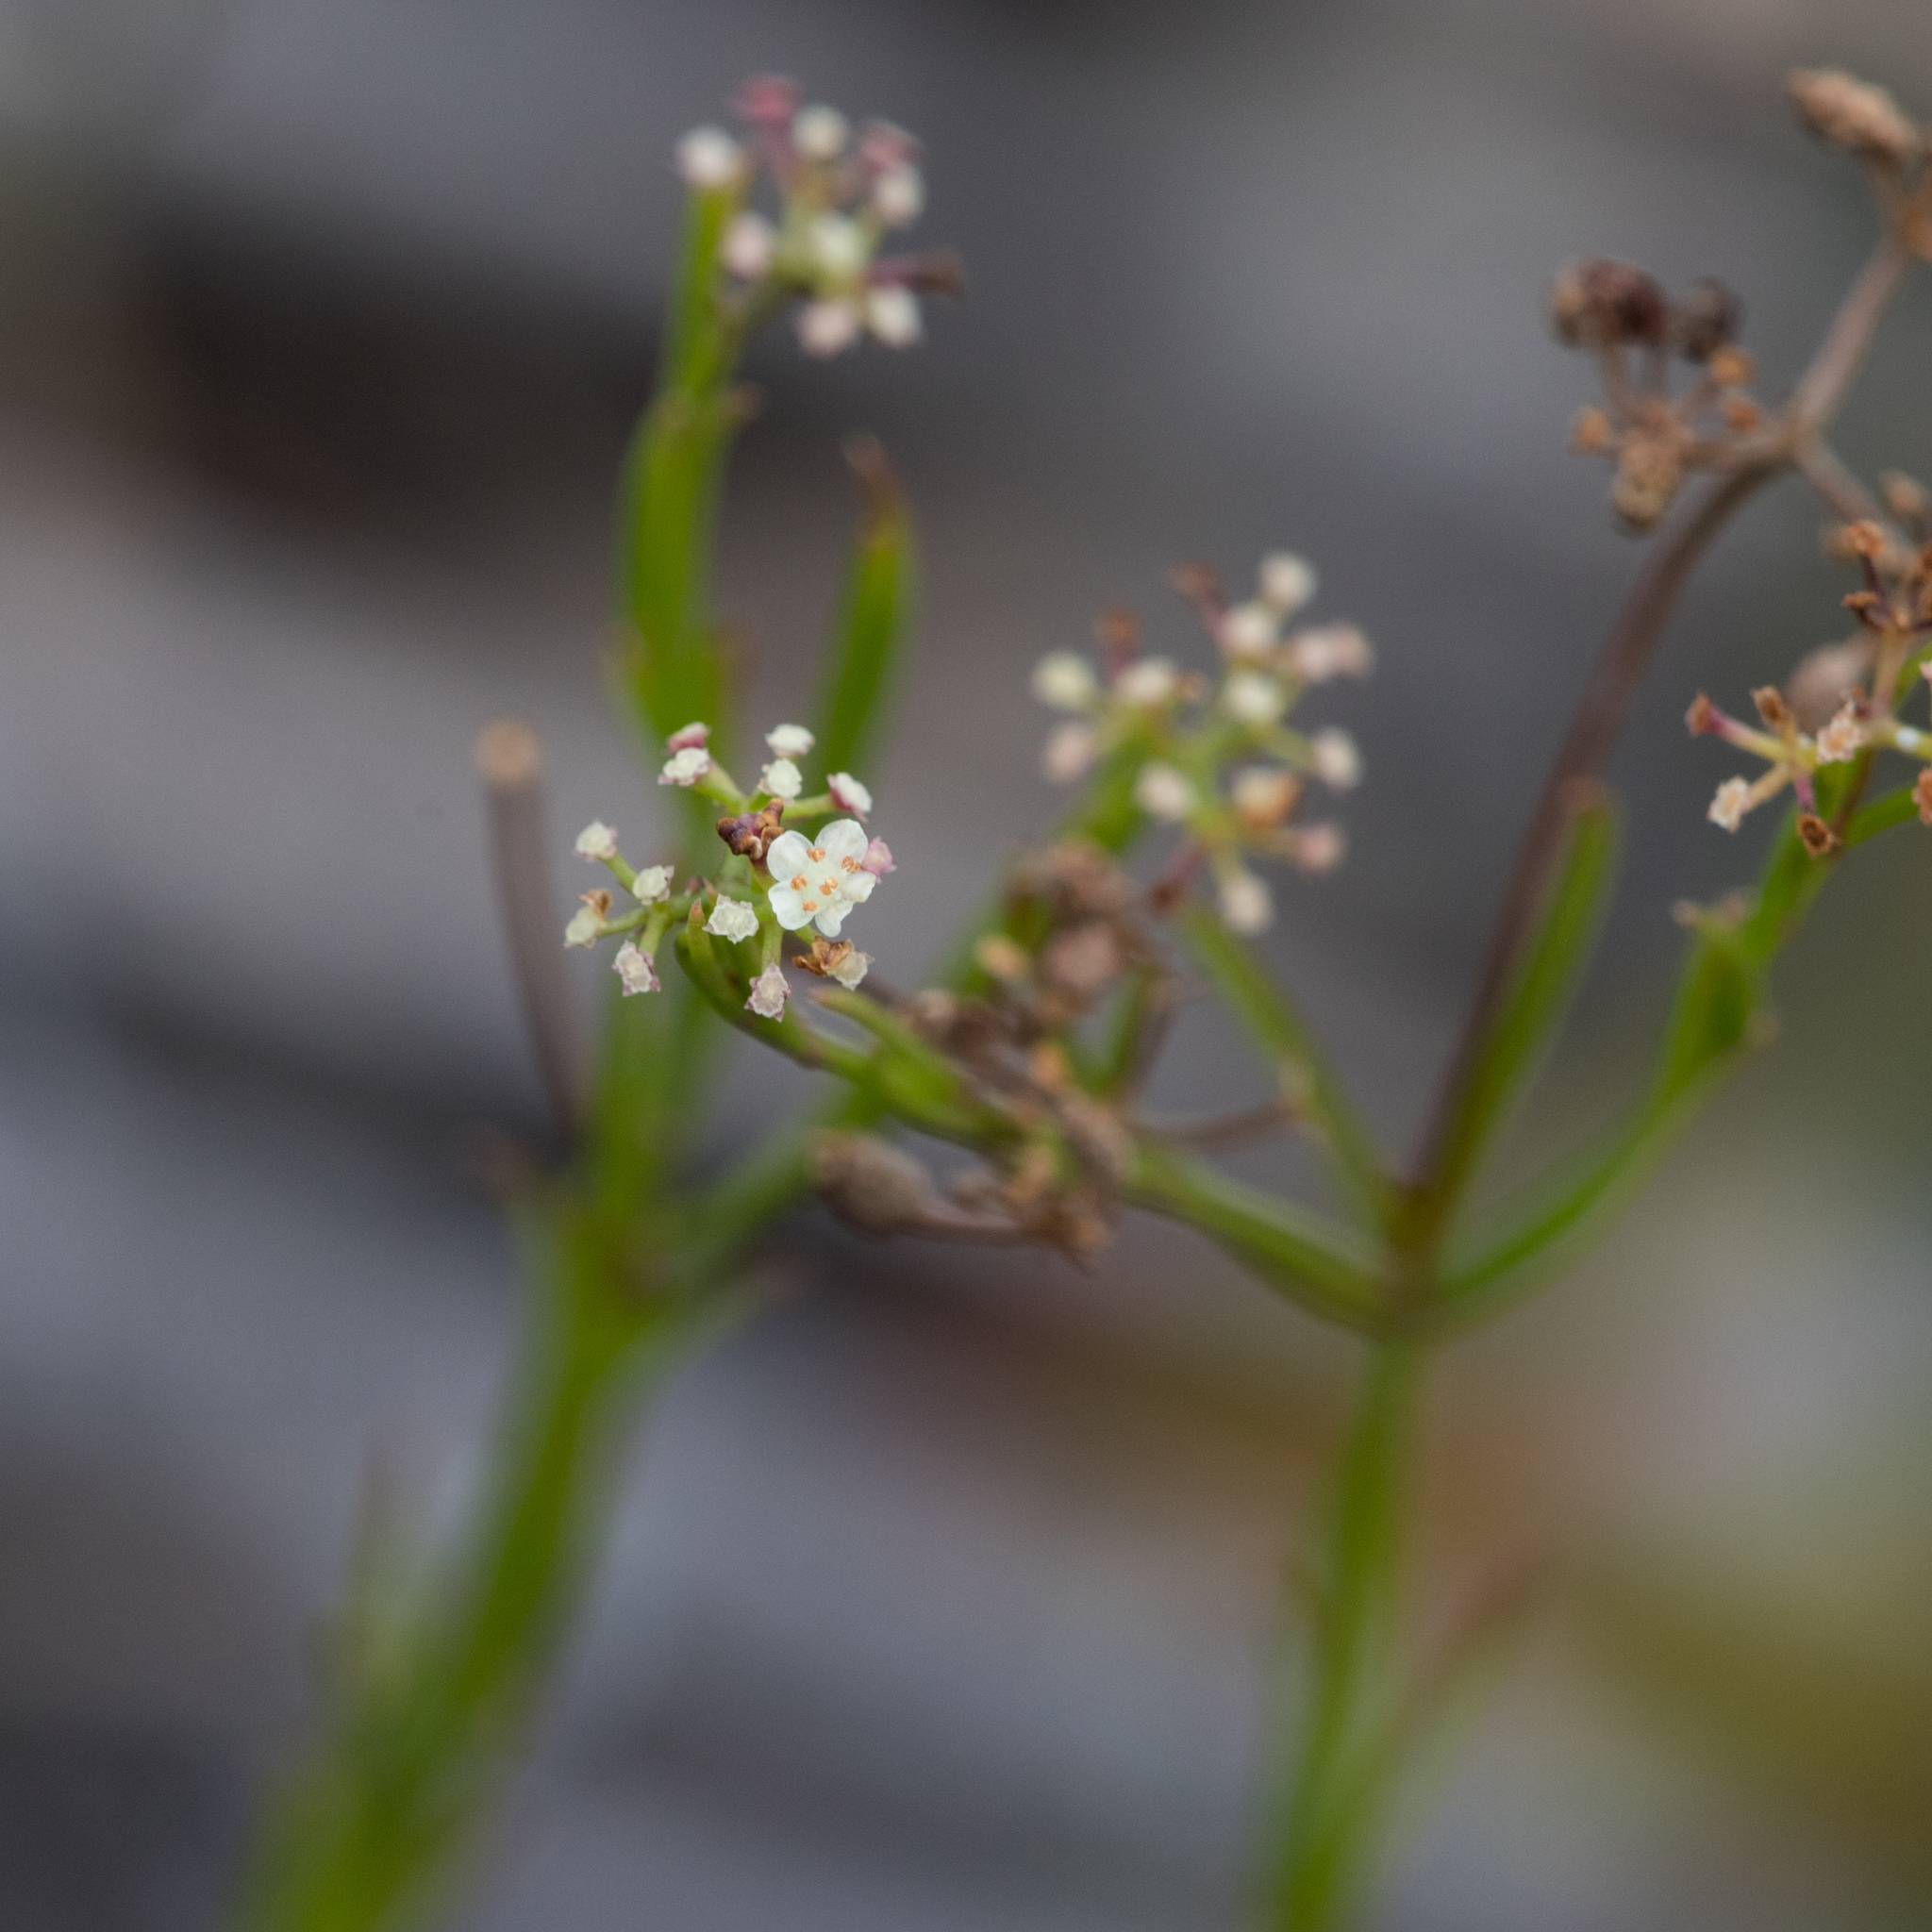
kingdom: Plantae
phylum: Tracheophyta
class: Magnoliopsida
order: Apiales
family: Apiaceae
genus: Platysace
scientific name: Platysace heterophylla
